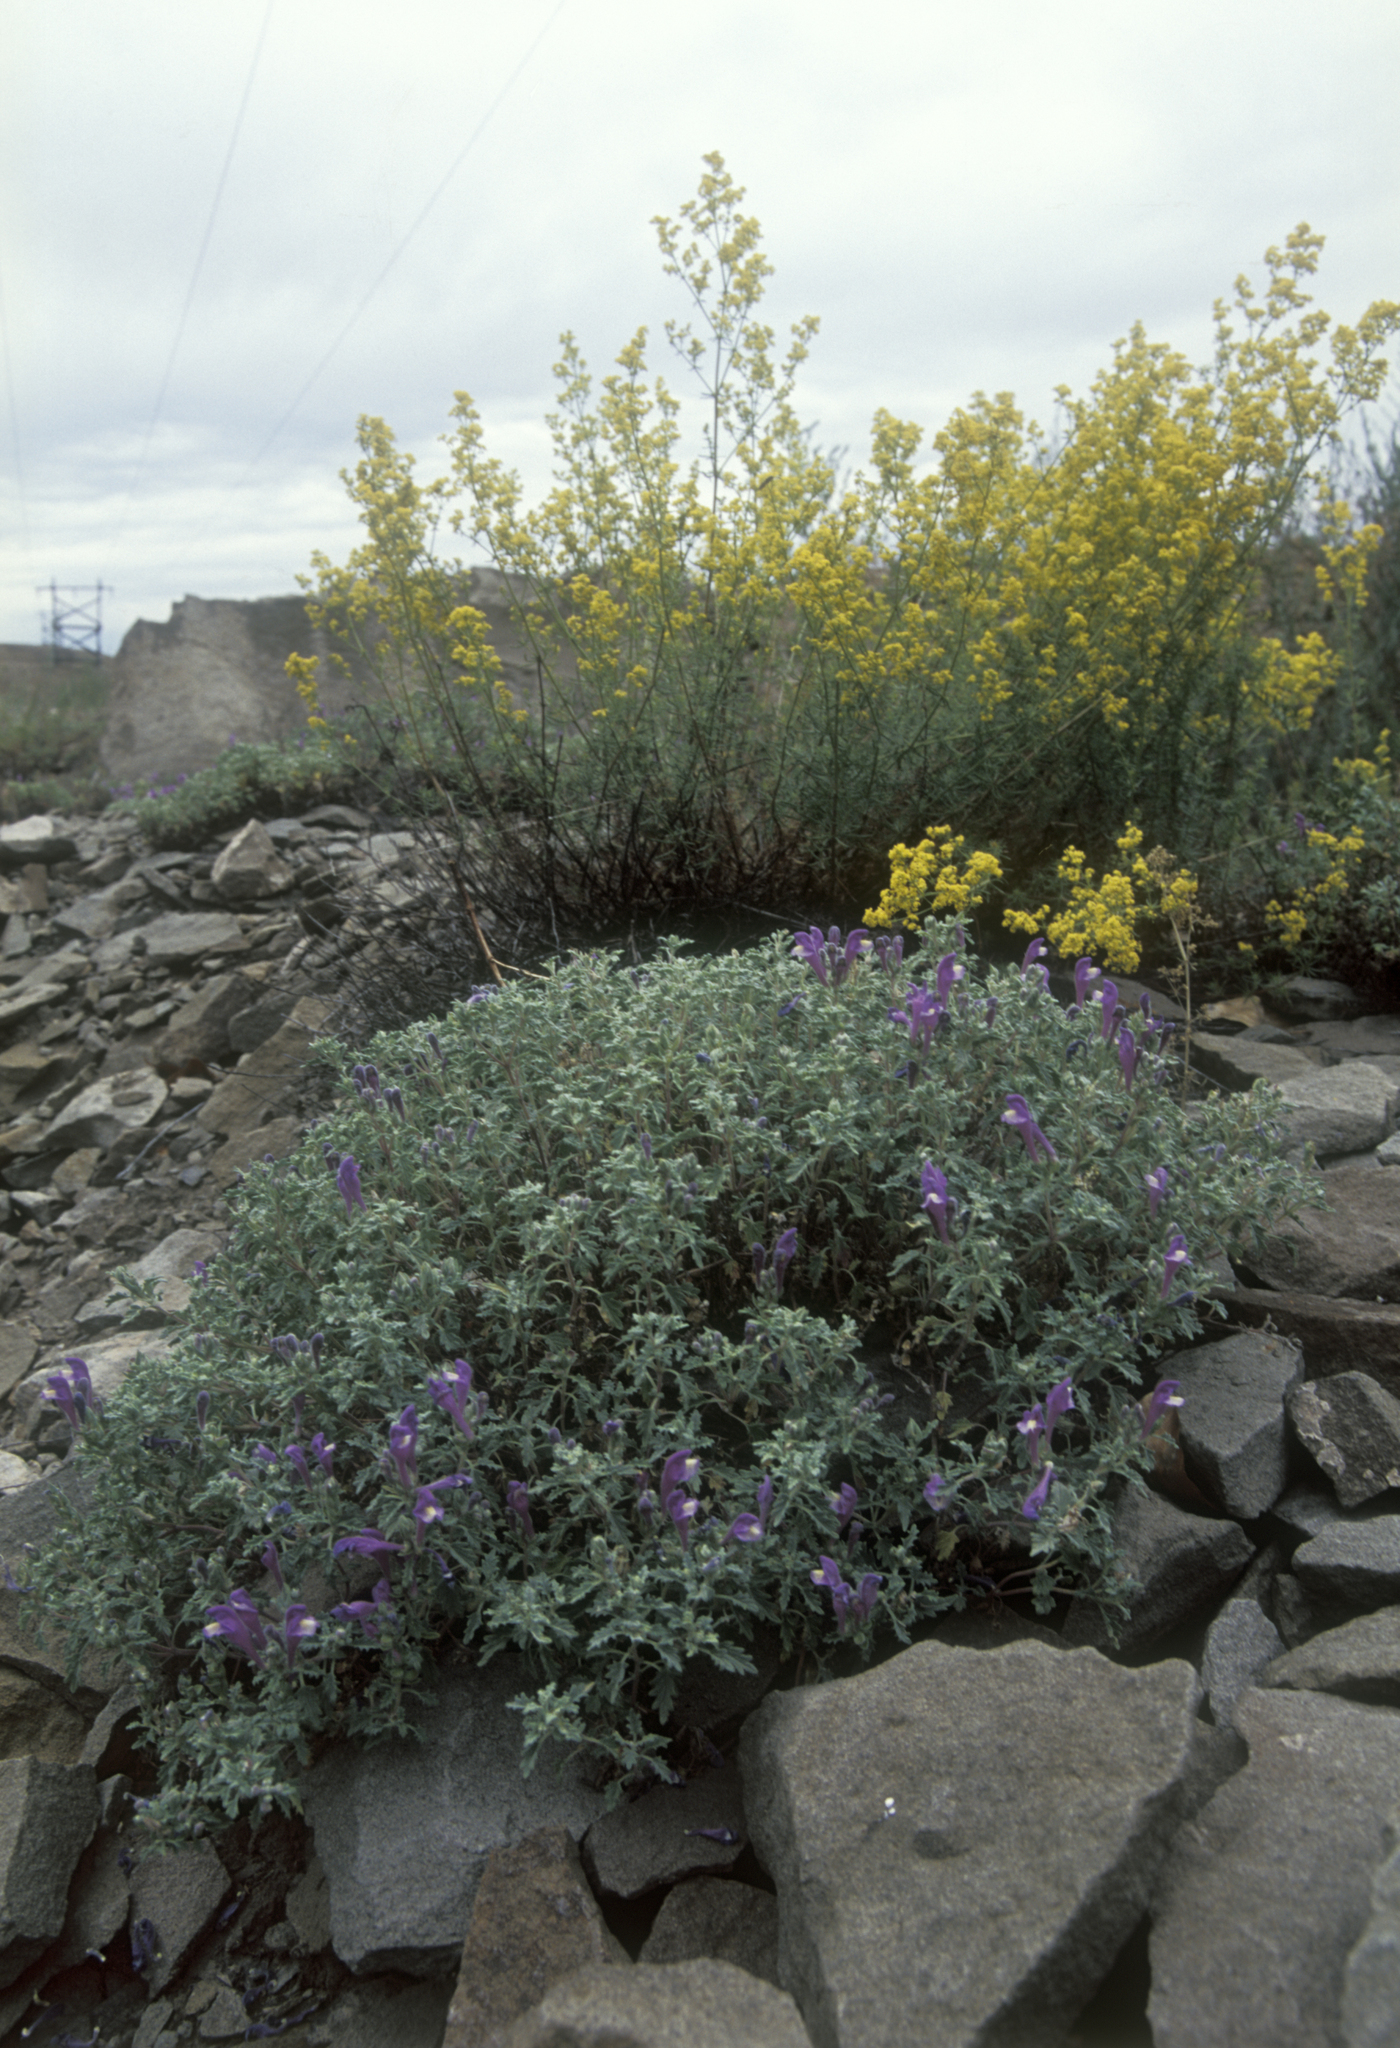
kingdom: Plantae
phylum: Tracheophyta
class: Magnoliopsida
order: Gentianales
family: Rubiaceae
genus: Galium
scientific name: Galium verum
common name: Lady's bedstraw
